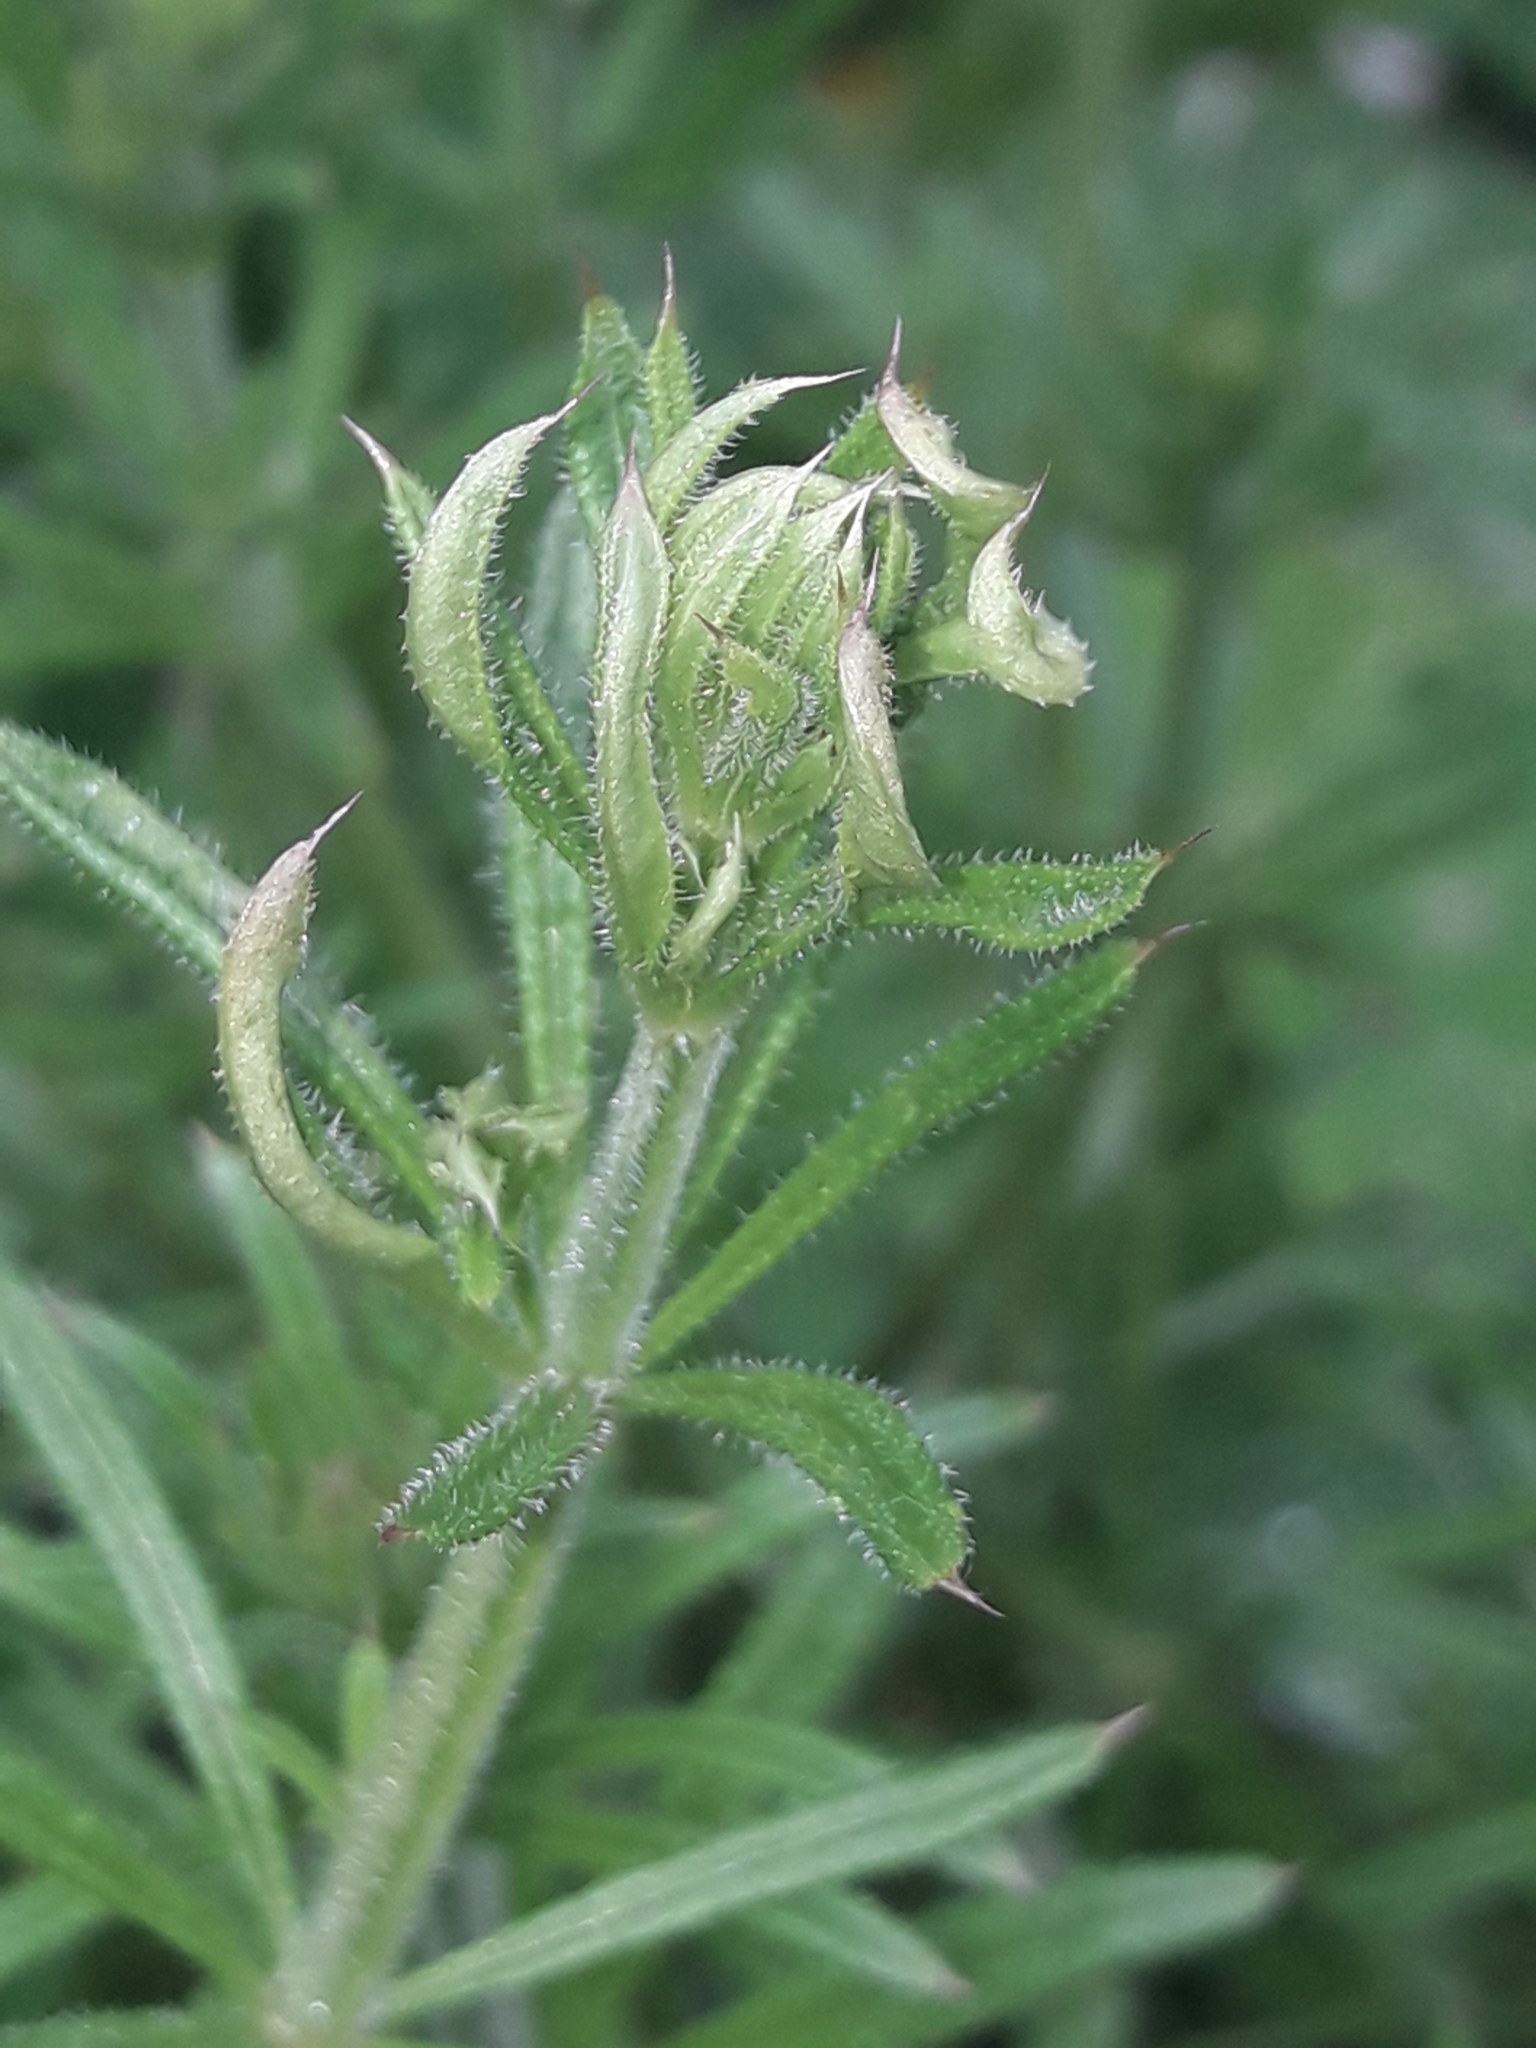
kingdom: Animalia
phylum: Arthropoda
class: Arachnida
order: Trombidiformes
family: Eriophyidae
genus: Cecidophyes
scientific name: Cecidophyes rouhollahi
